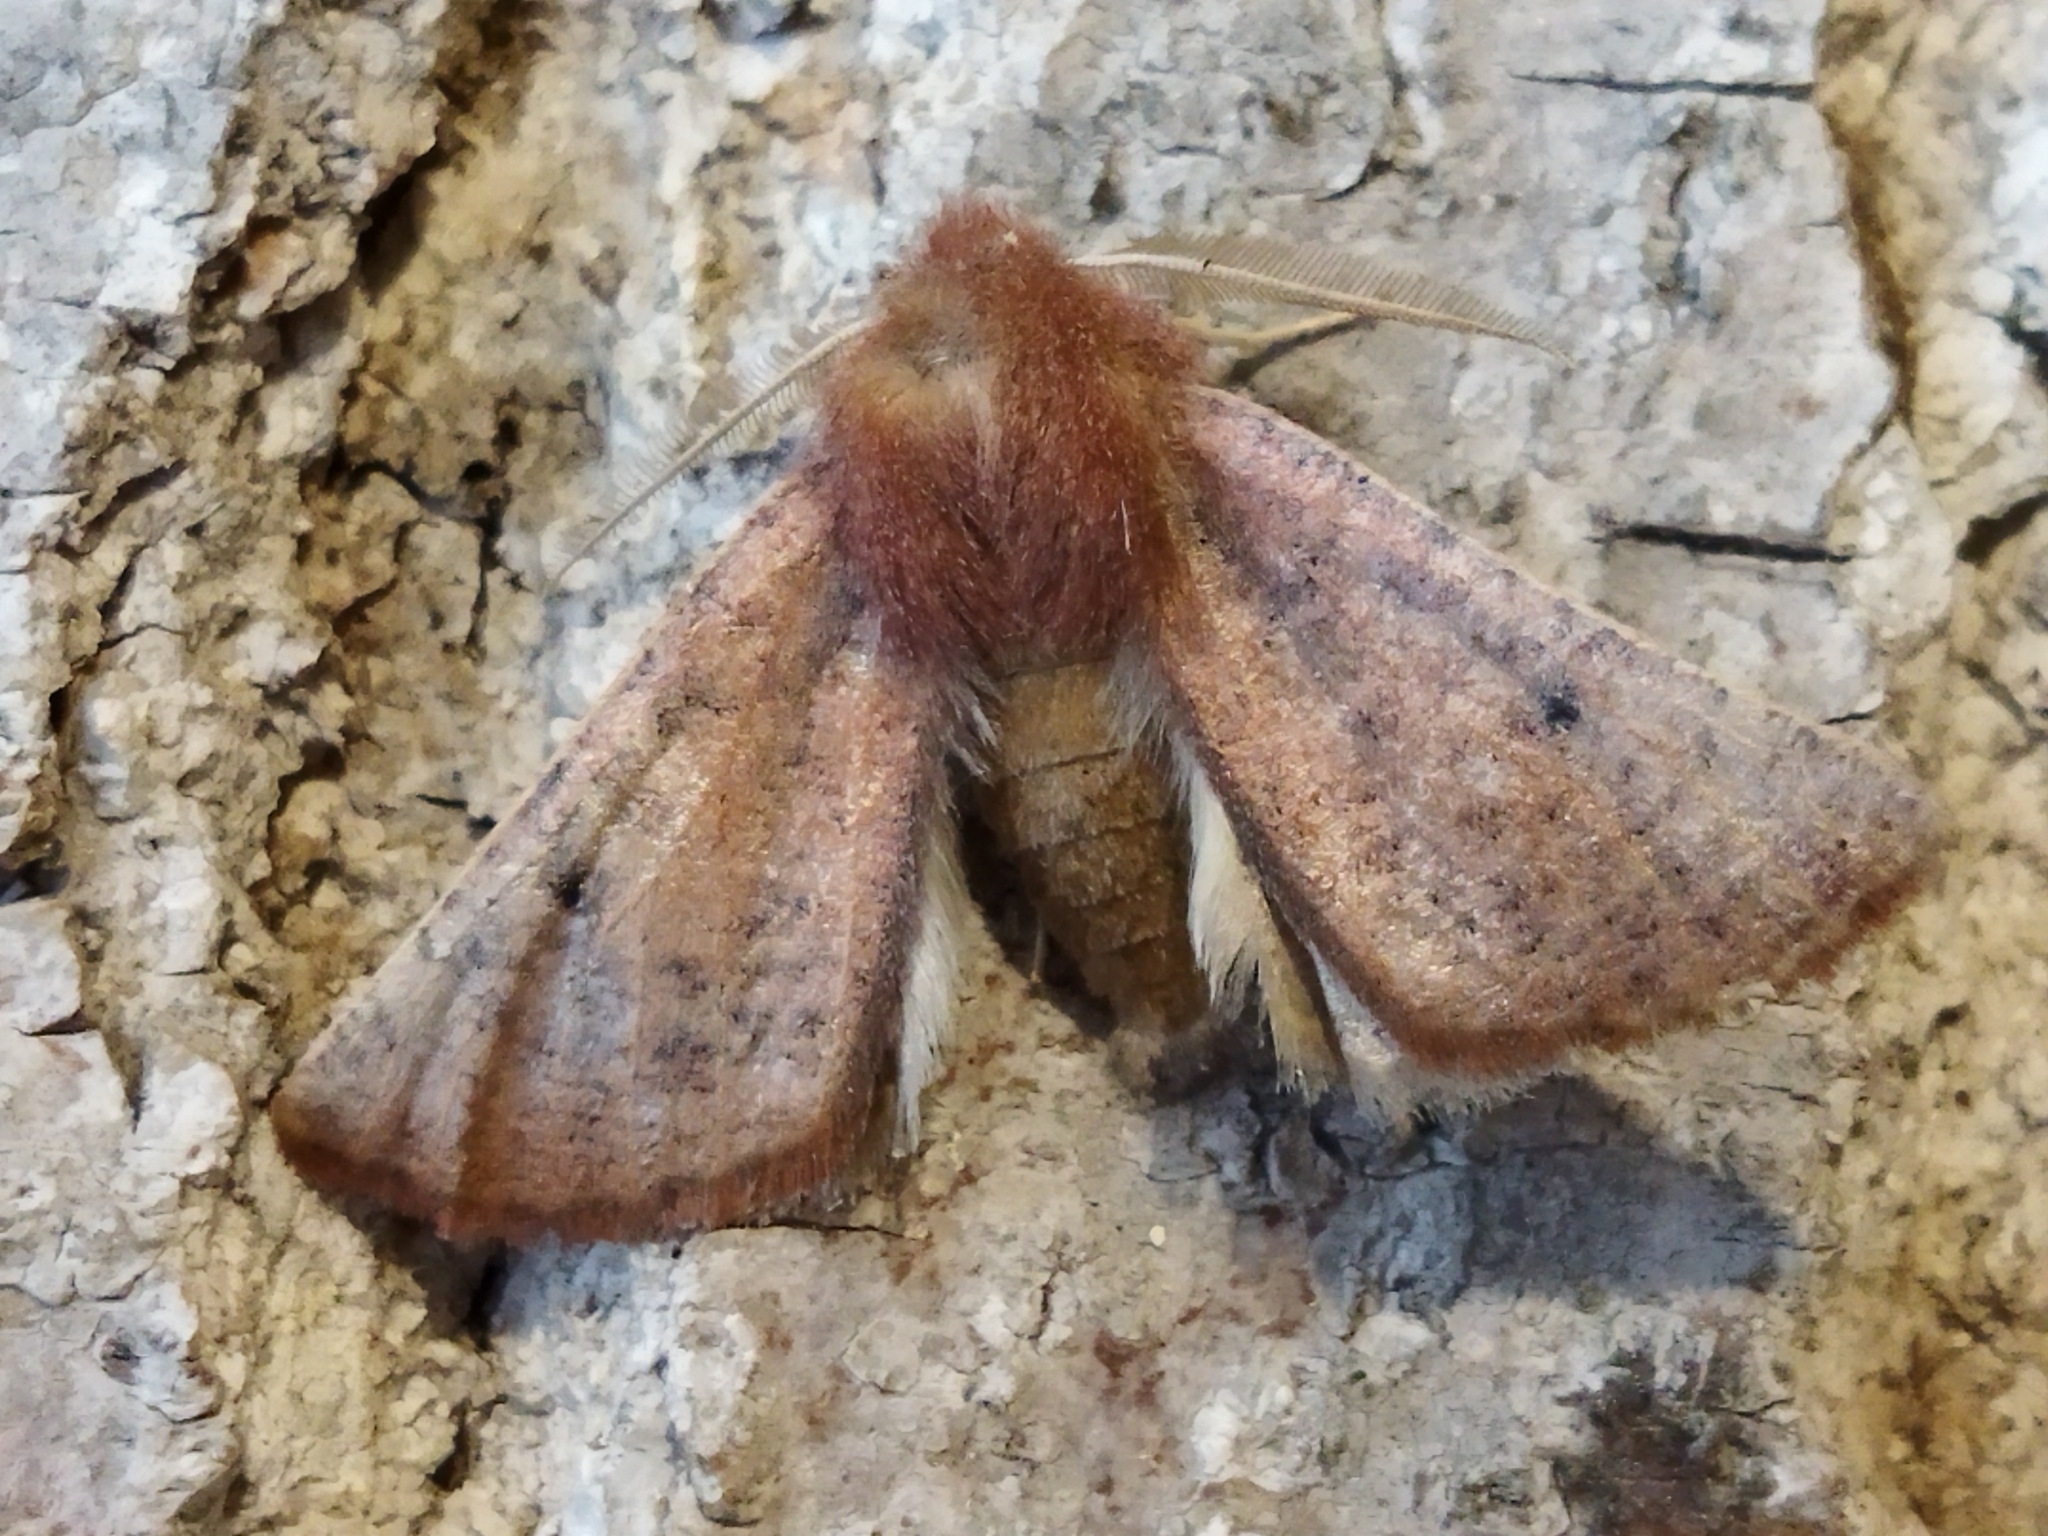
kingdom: Animalia
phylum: Arthropoda
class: Insecta
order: Lepidoptera
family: Geometridae
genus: Dasycorsa
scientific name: Dasycorsa modesta
